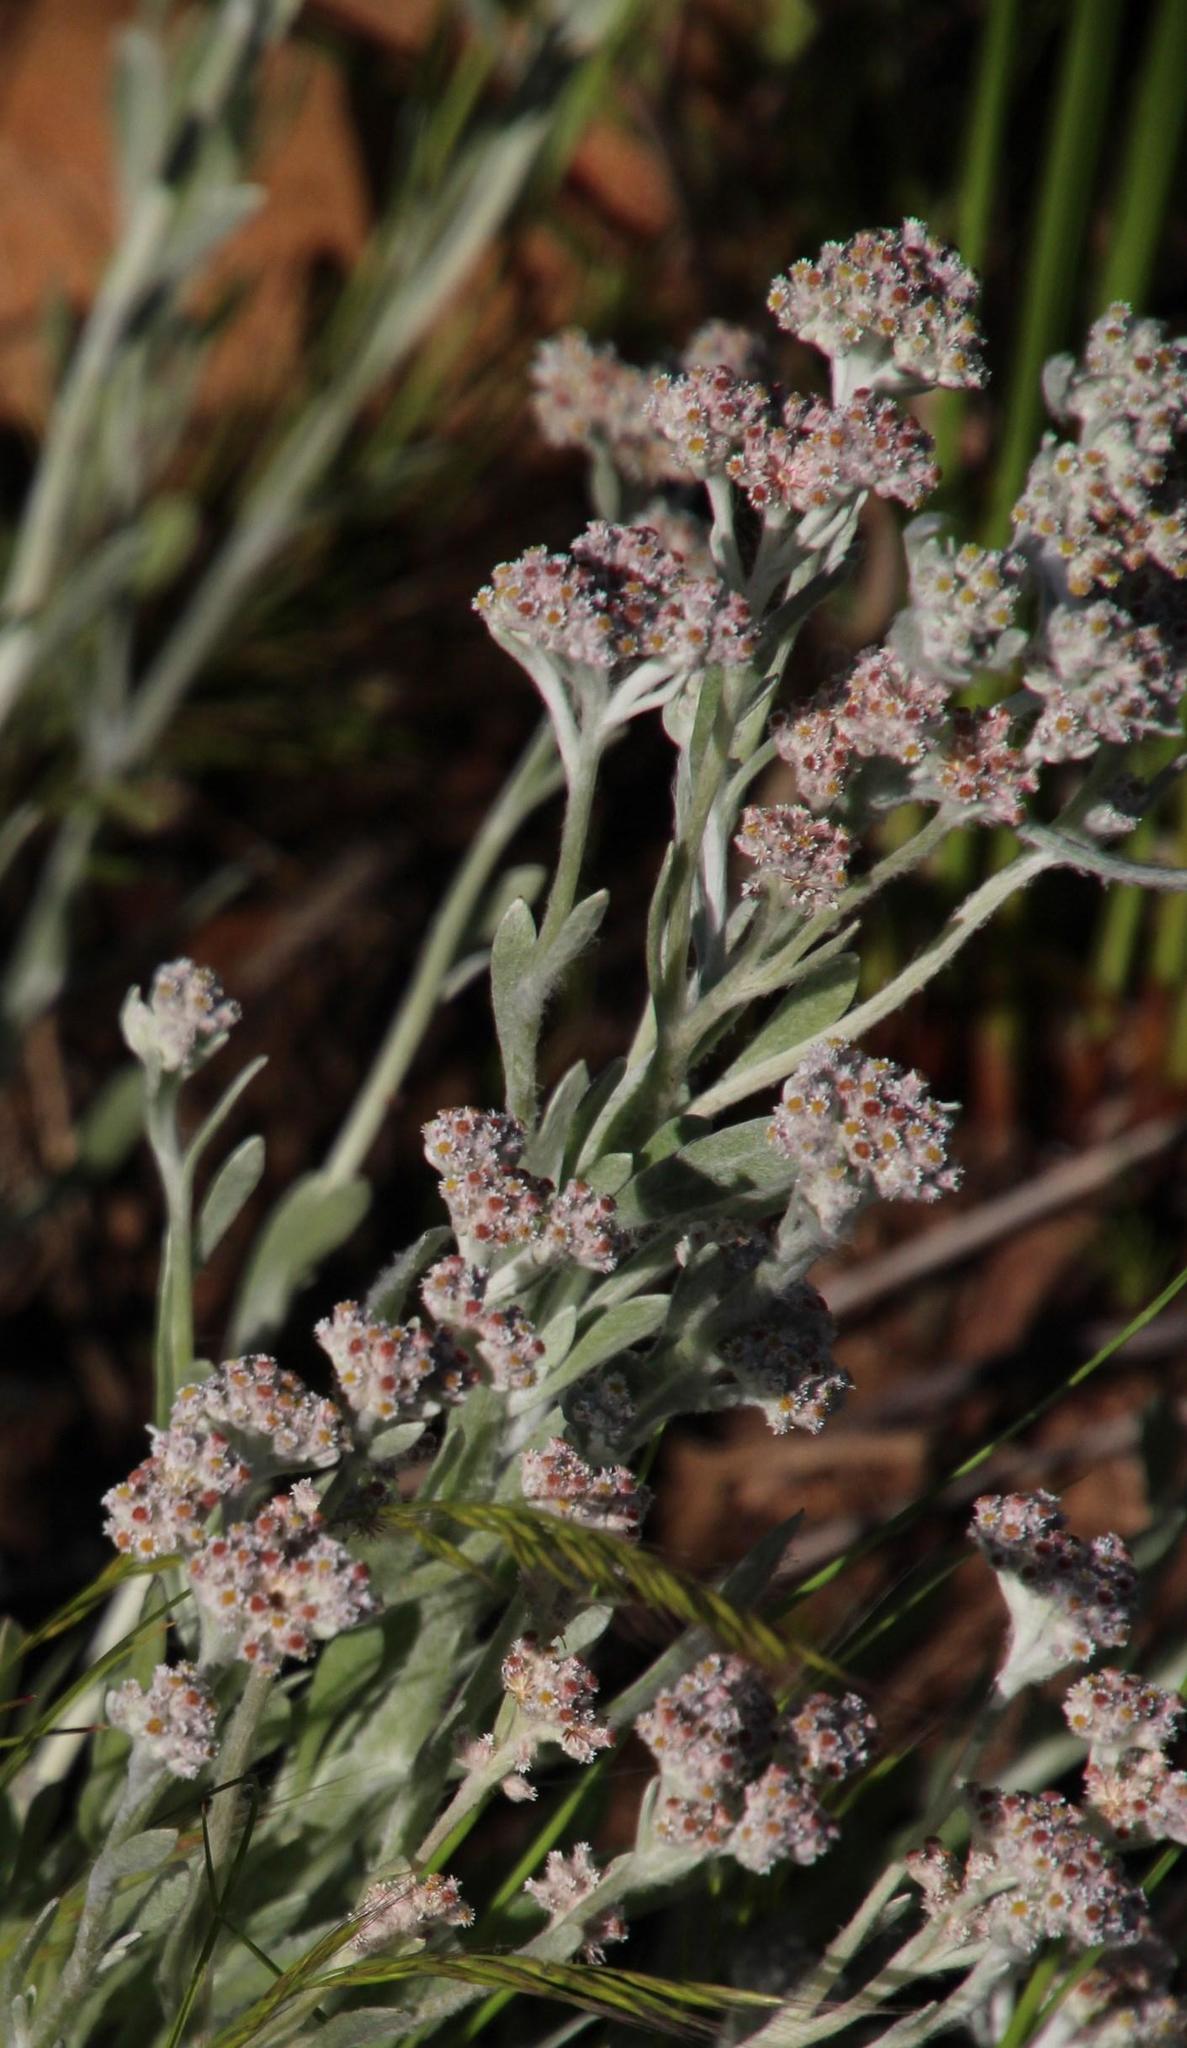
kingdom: Plantae
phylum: Tracheophyta
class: Magnoliopsida
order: Asterales
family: Asteraceae
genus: Vellereophyton
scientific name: Vellereophyton dealbatum
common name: White-cudweed
